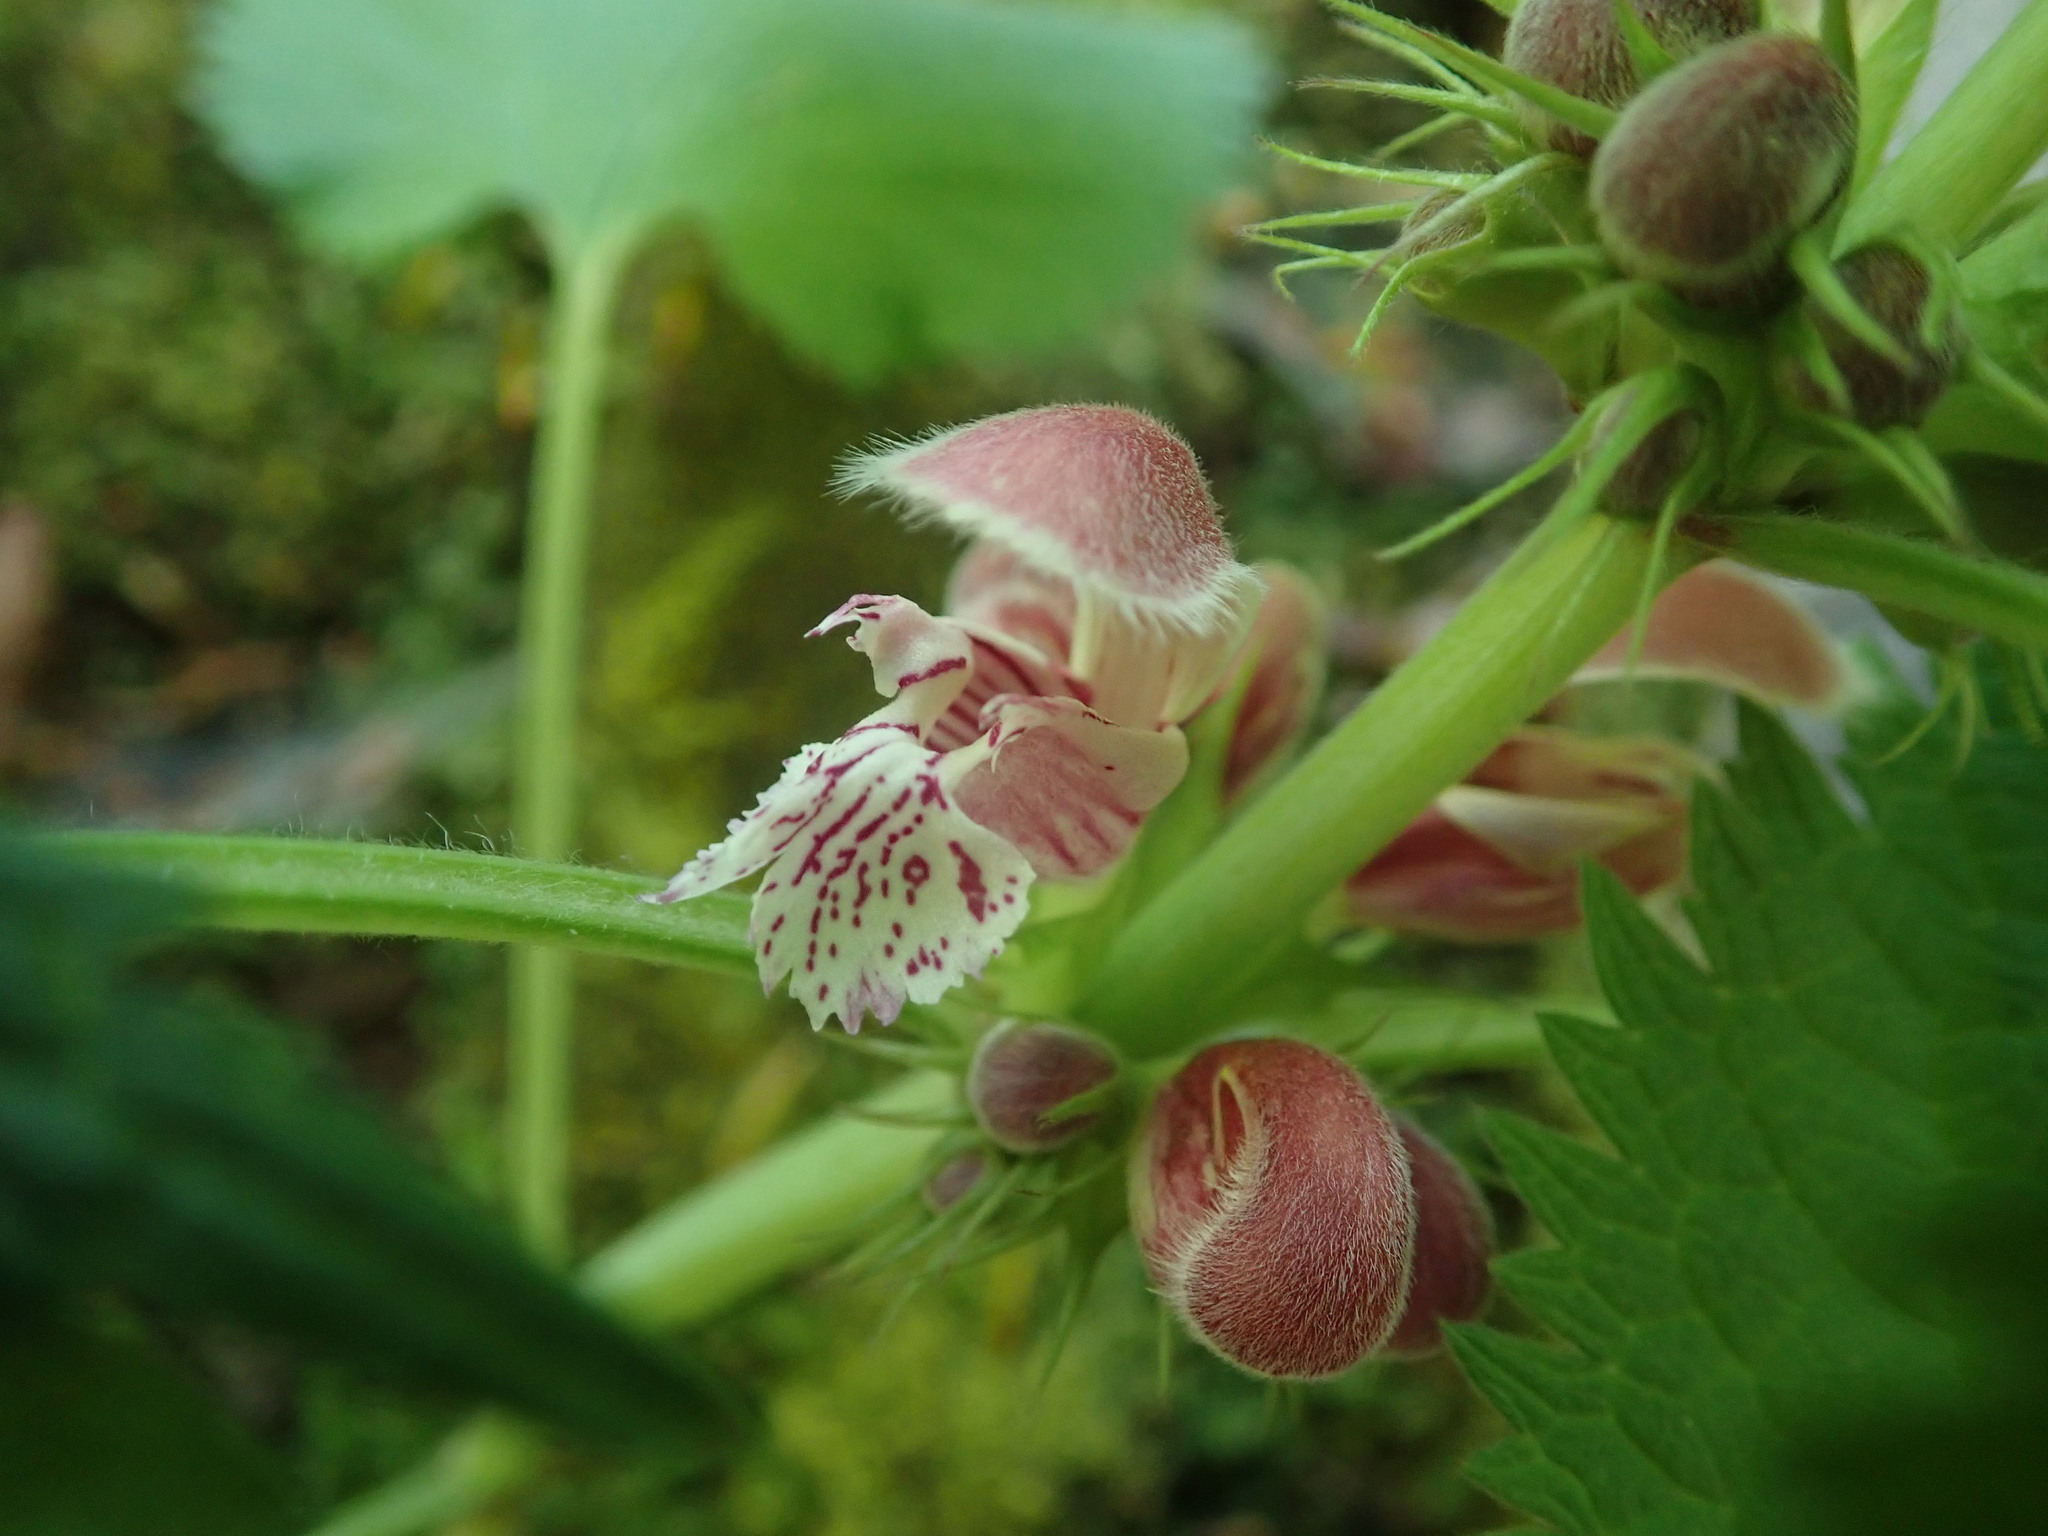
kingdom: Plantae
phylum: Tracheophyta
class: Magnoliopsida
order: Lamiales
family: Lamiaceae
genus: Lamium
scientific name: Lamium orvala
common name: Balm-leaved archangel
